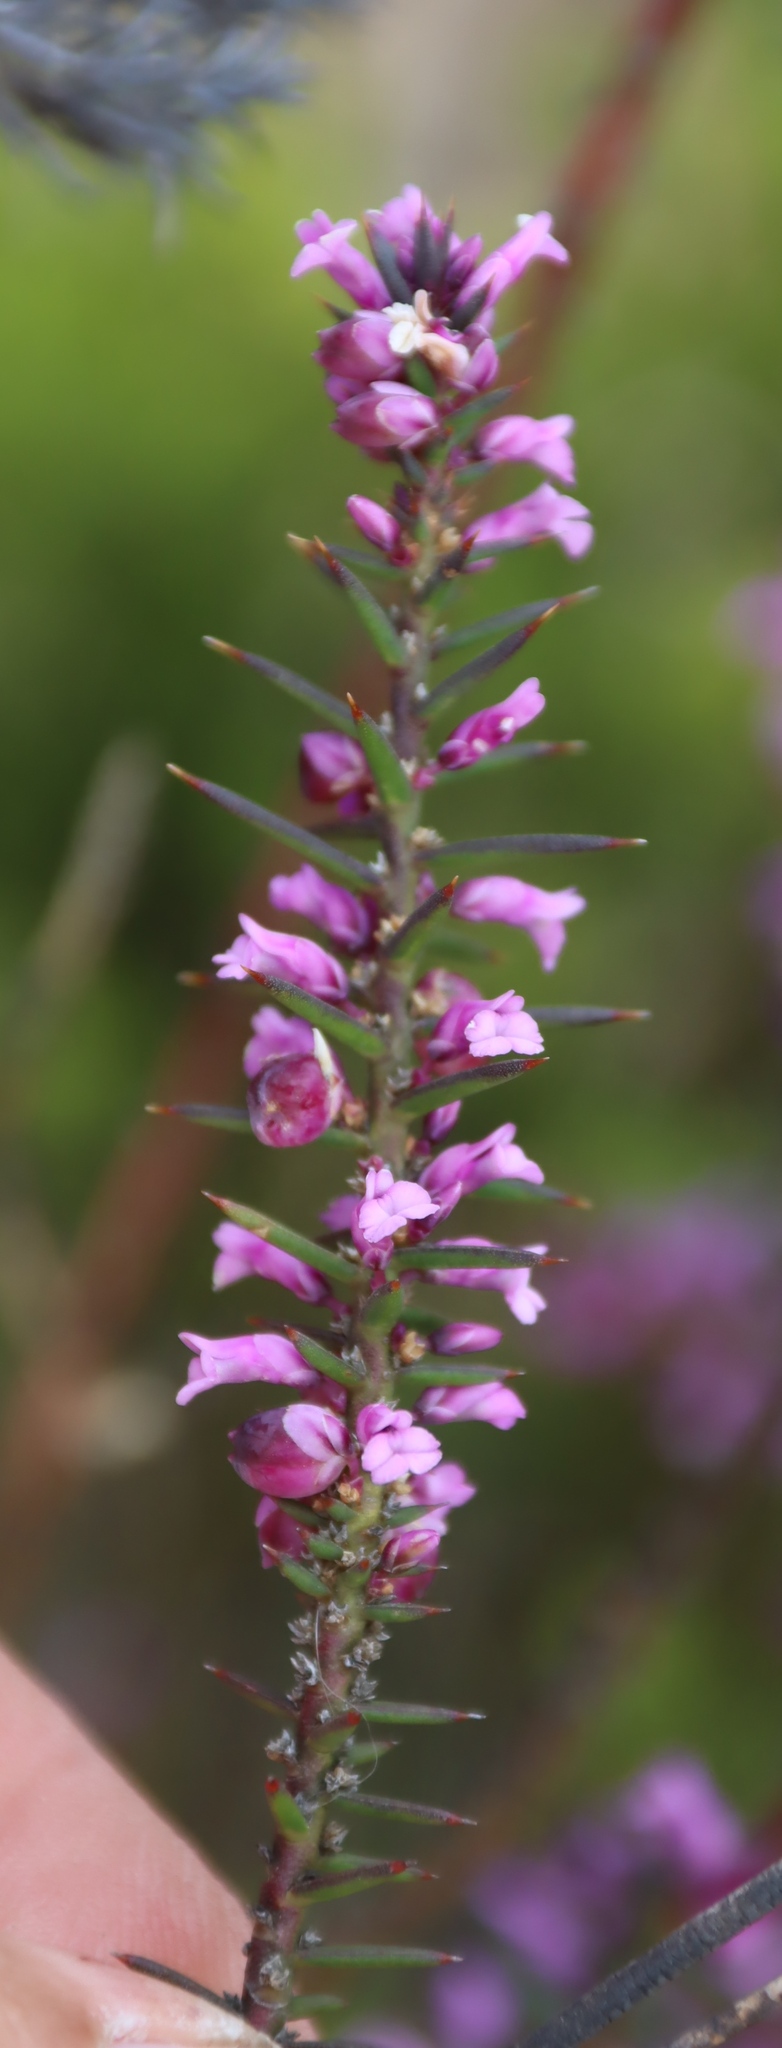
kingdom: Plantae
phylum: Tracheophyta
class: Magnoliopsida
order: Fabales
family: Polygalaceae
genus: Muraltia
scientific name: Muraltia juniperifolia
